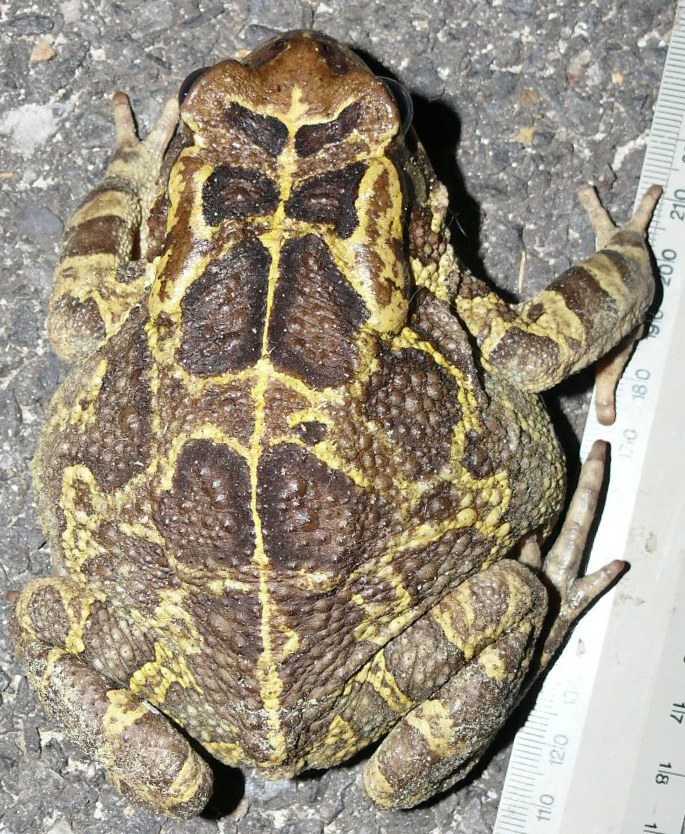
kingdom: Animalia
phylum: Chordata
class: Amphibia
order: Anura
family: Bufonidae
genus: Sclerophrys
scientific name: Sclerophrys pantherina
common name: Panther toad
